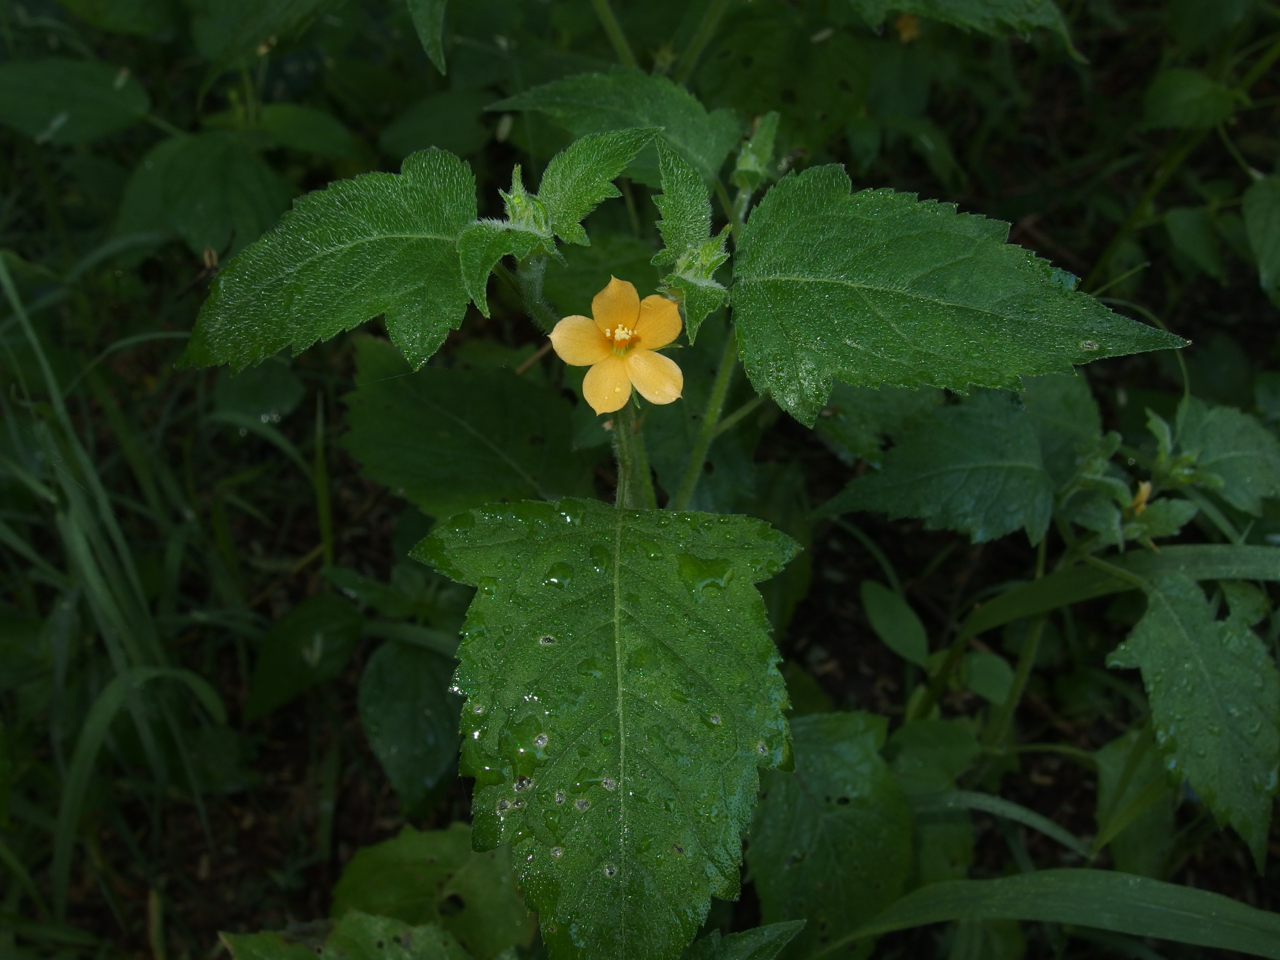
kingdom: Plantae
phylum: Tracheophyta
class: Magnoliopsida
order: Cornales
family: Loasaceae
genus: Mentzelia
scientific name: Mentzelia aspera
